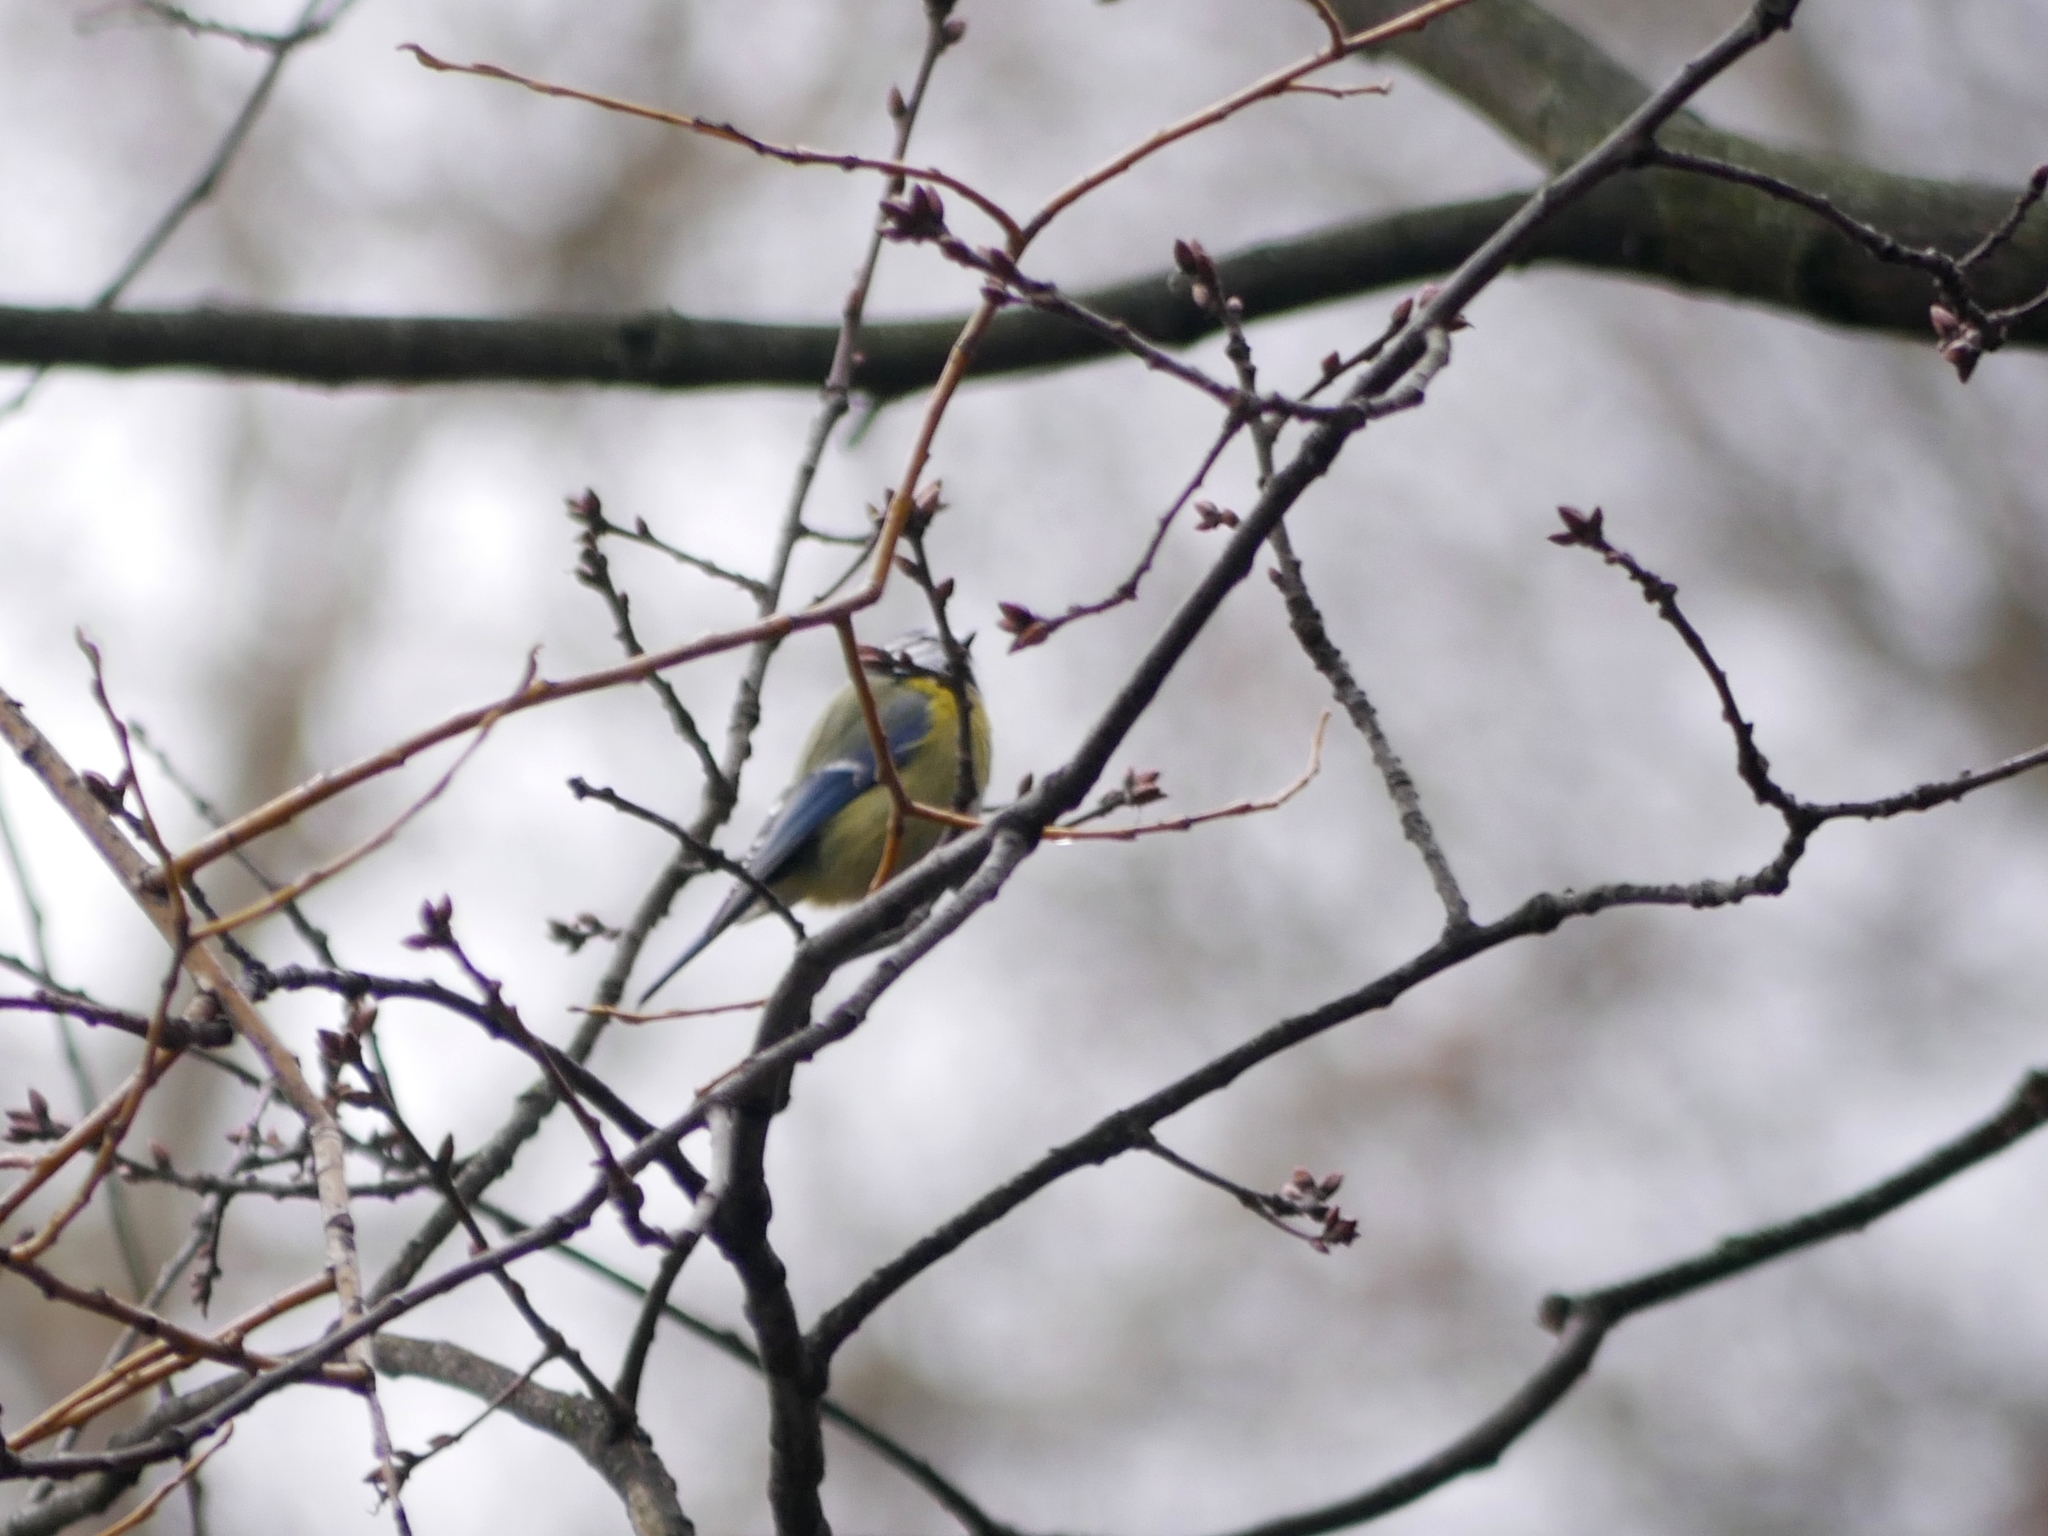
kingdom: Animalia
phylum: Chordata
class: Aves
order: Passeriformes
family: Paridae
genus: Cyanistes
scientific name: Cyanistes caeruleus
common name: Eurasian blue tit
